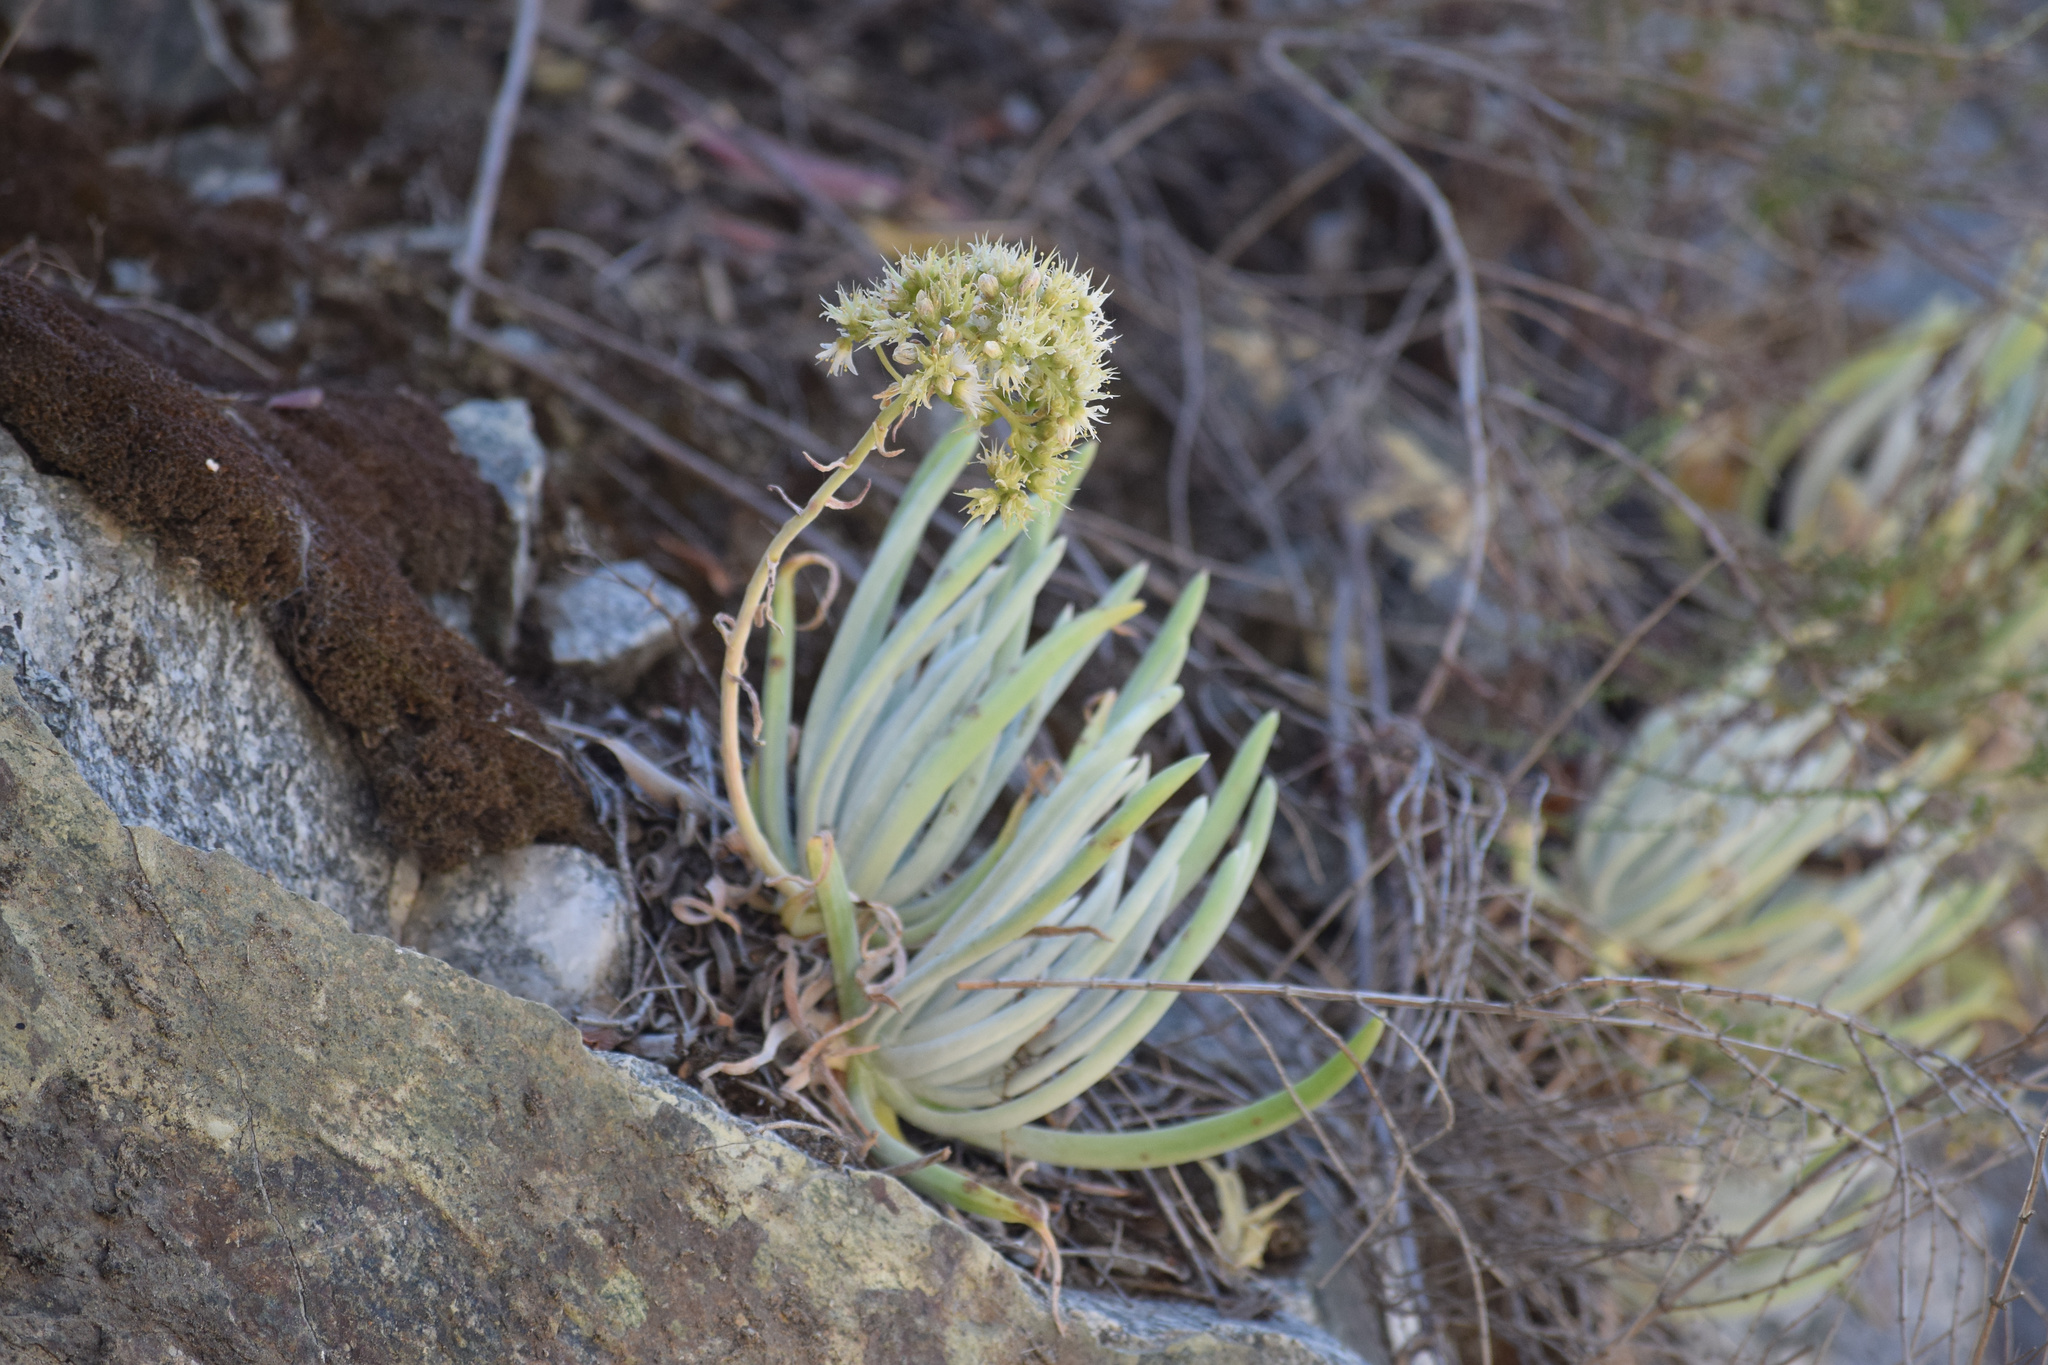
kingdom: Plantae
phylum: Tracheophyta
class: Magnoliopsida
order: Saxifragales
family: Crassulaceae
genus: Dudleya
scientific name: Dudleya densiflora
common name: San gabriel mountains dudleya
